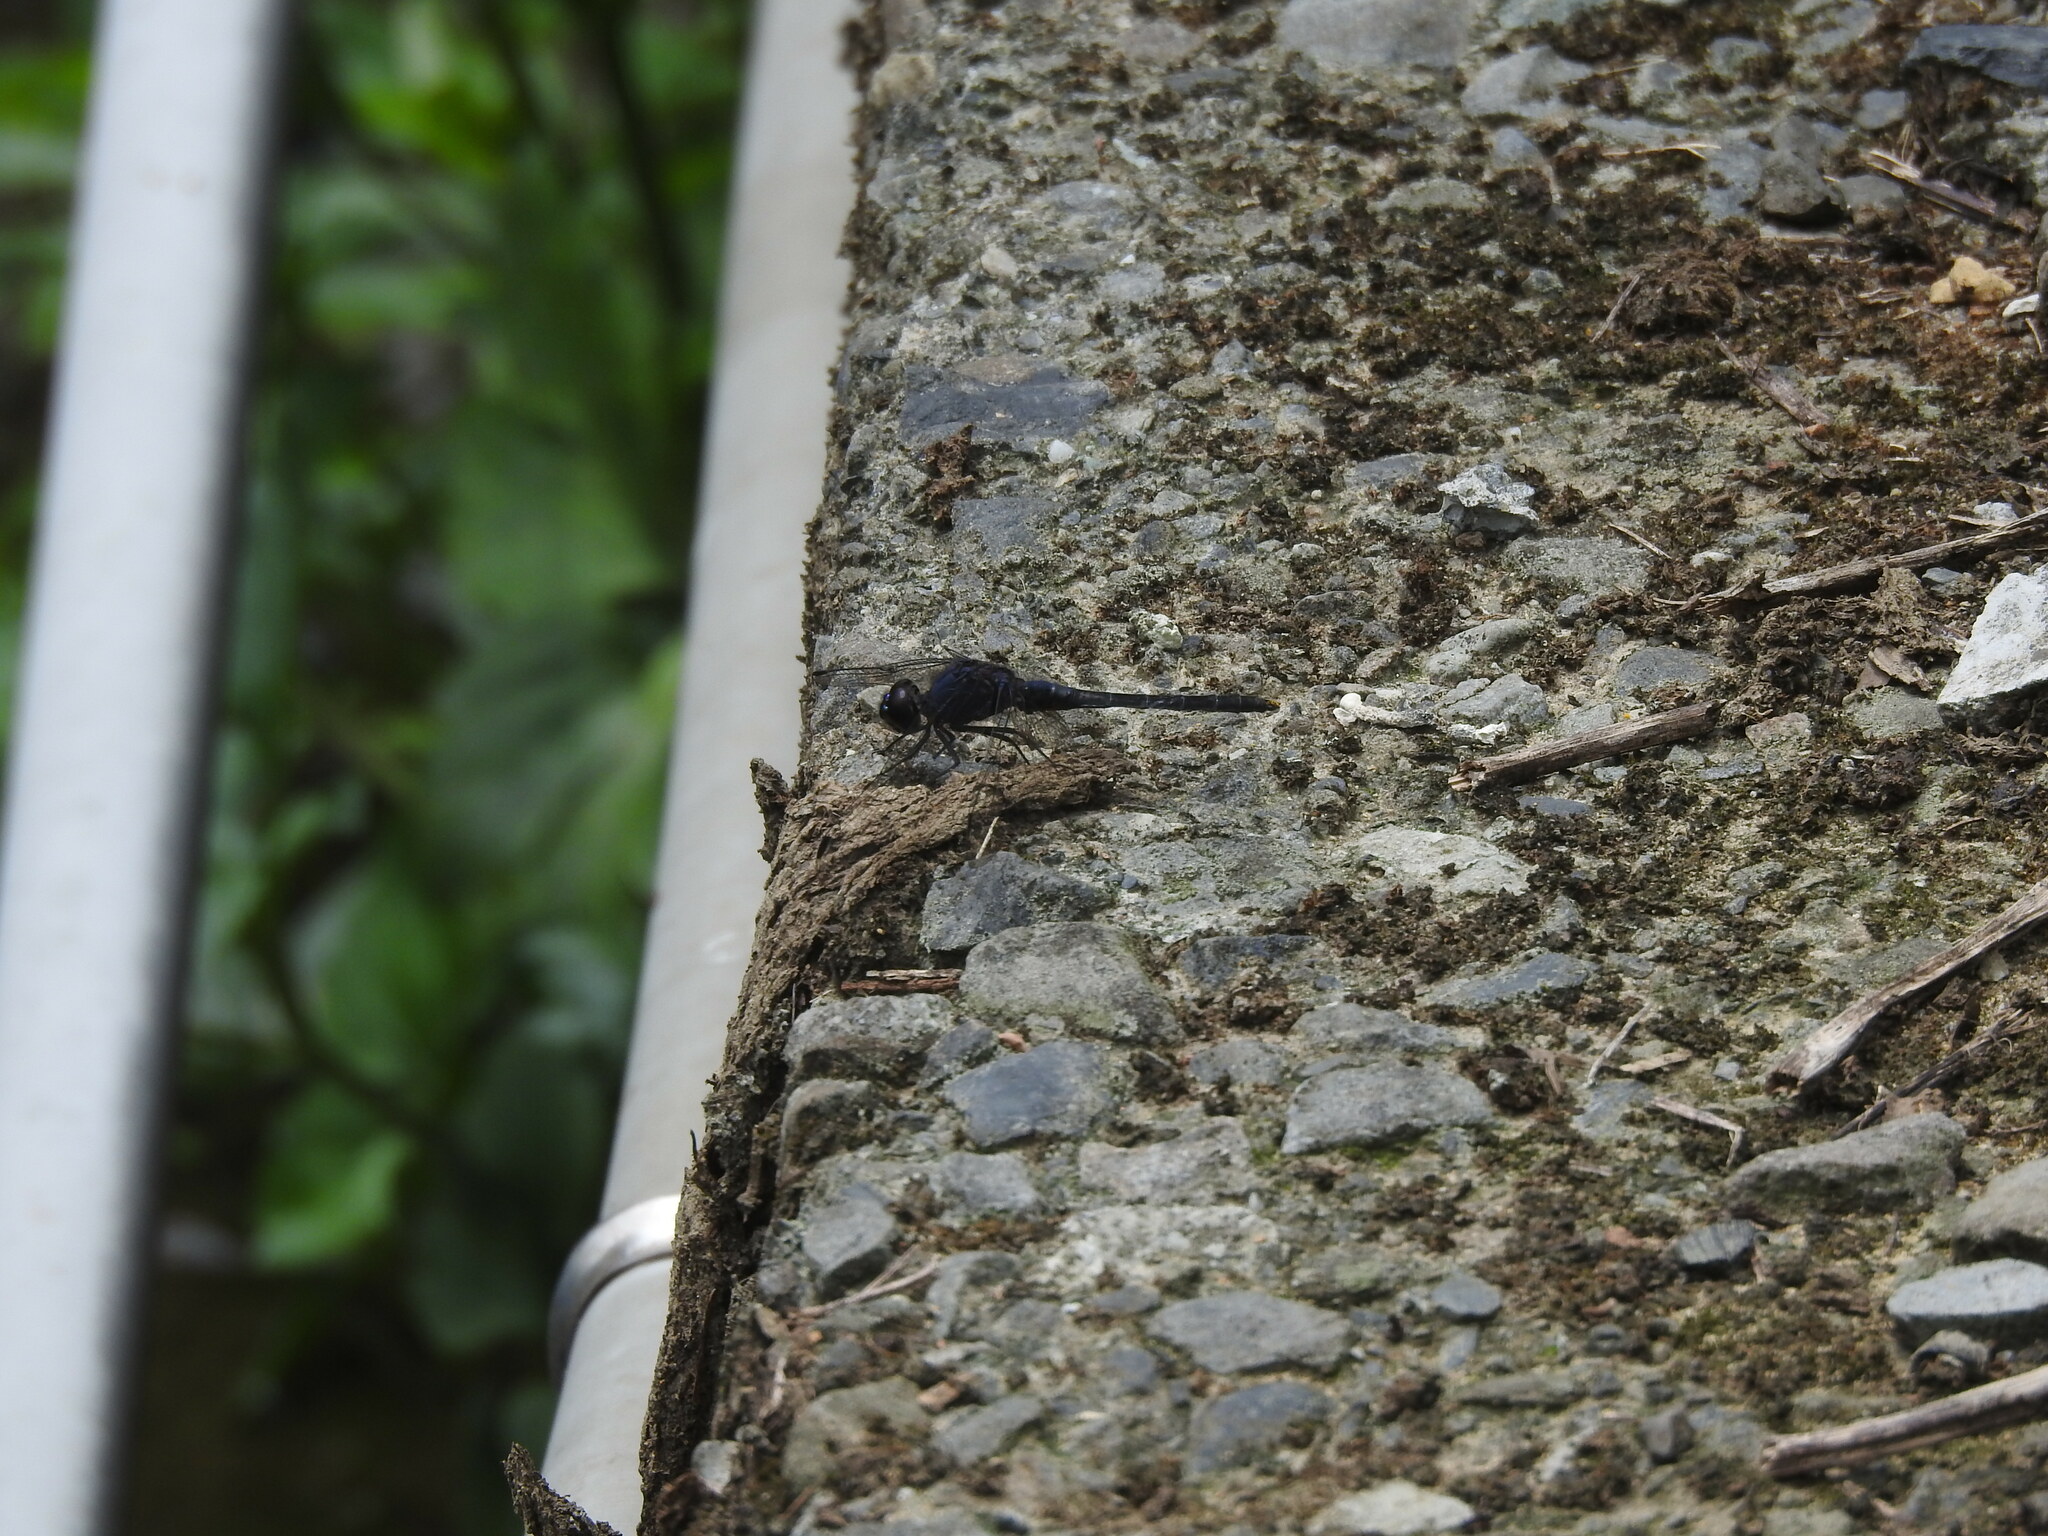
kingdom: Animalia
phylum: Arthropoda
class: Insecta
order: Odonata
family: Libellulidae
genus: Trithemis
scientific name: Trithemis festiva
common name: Indigo dropwing
